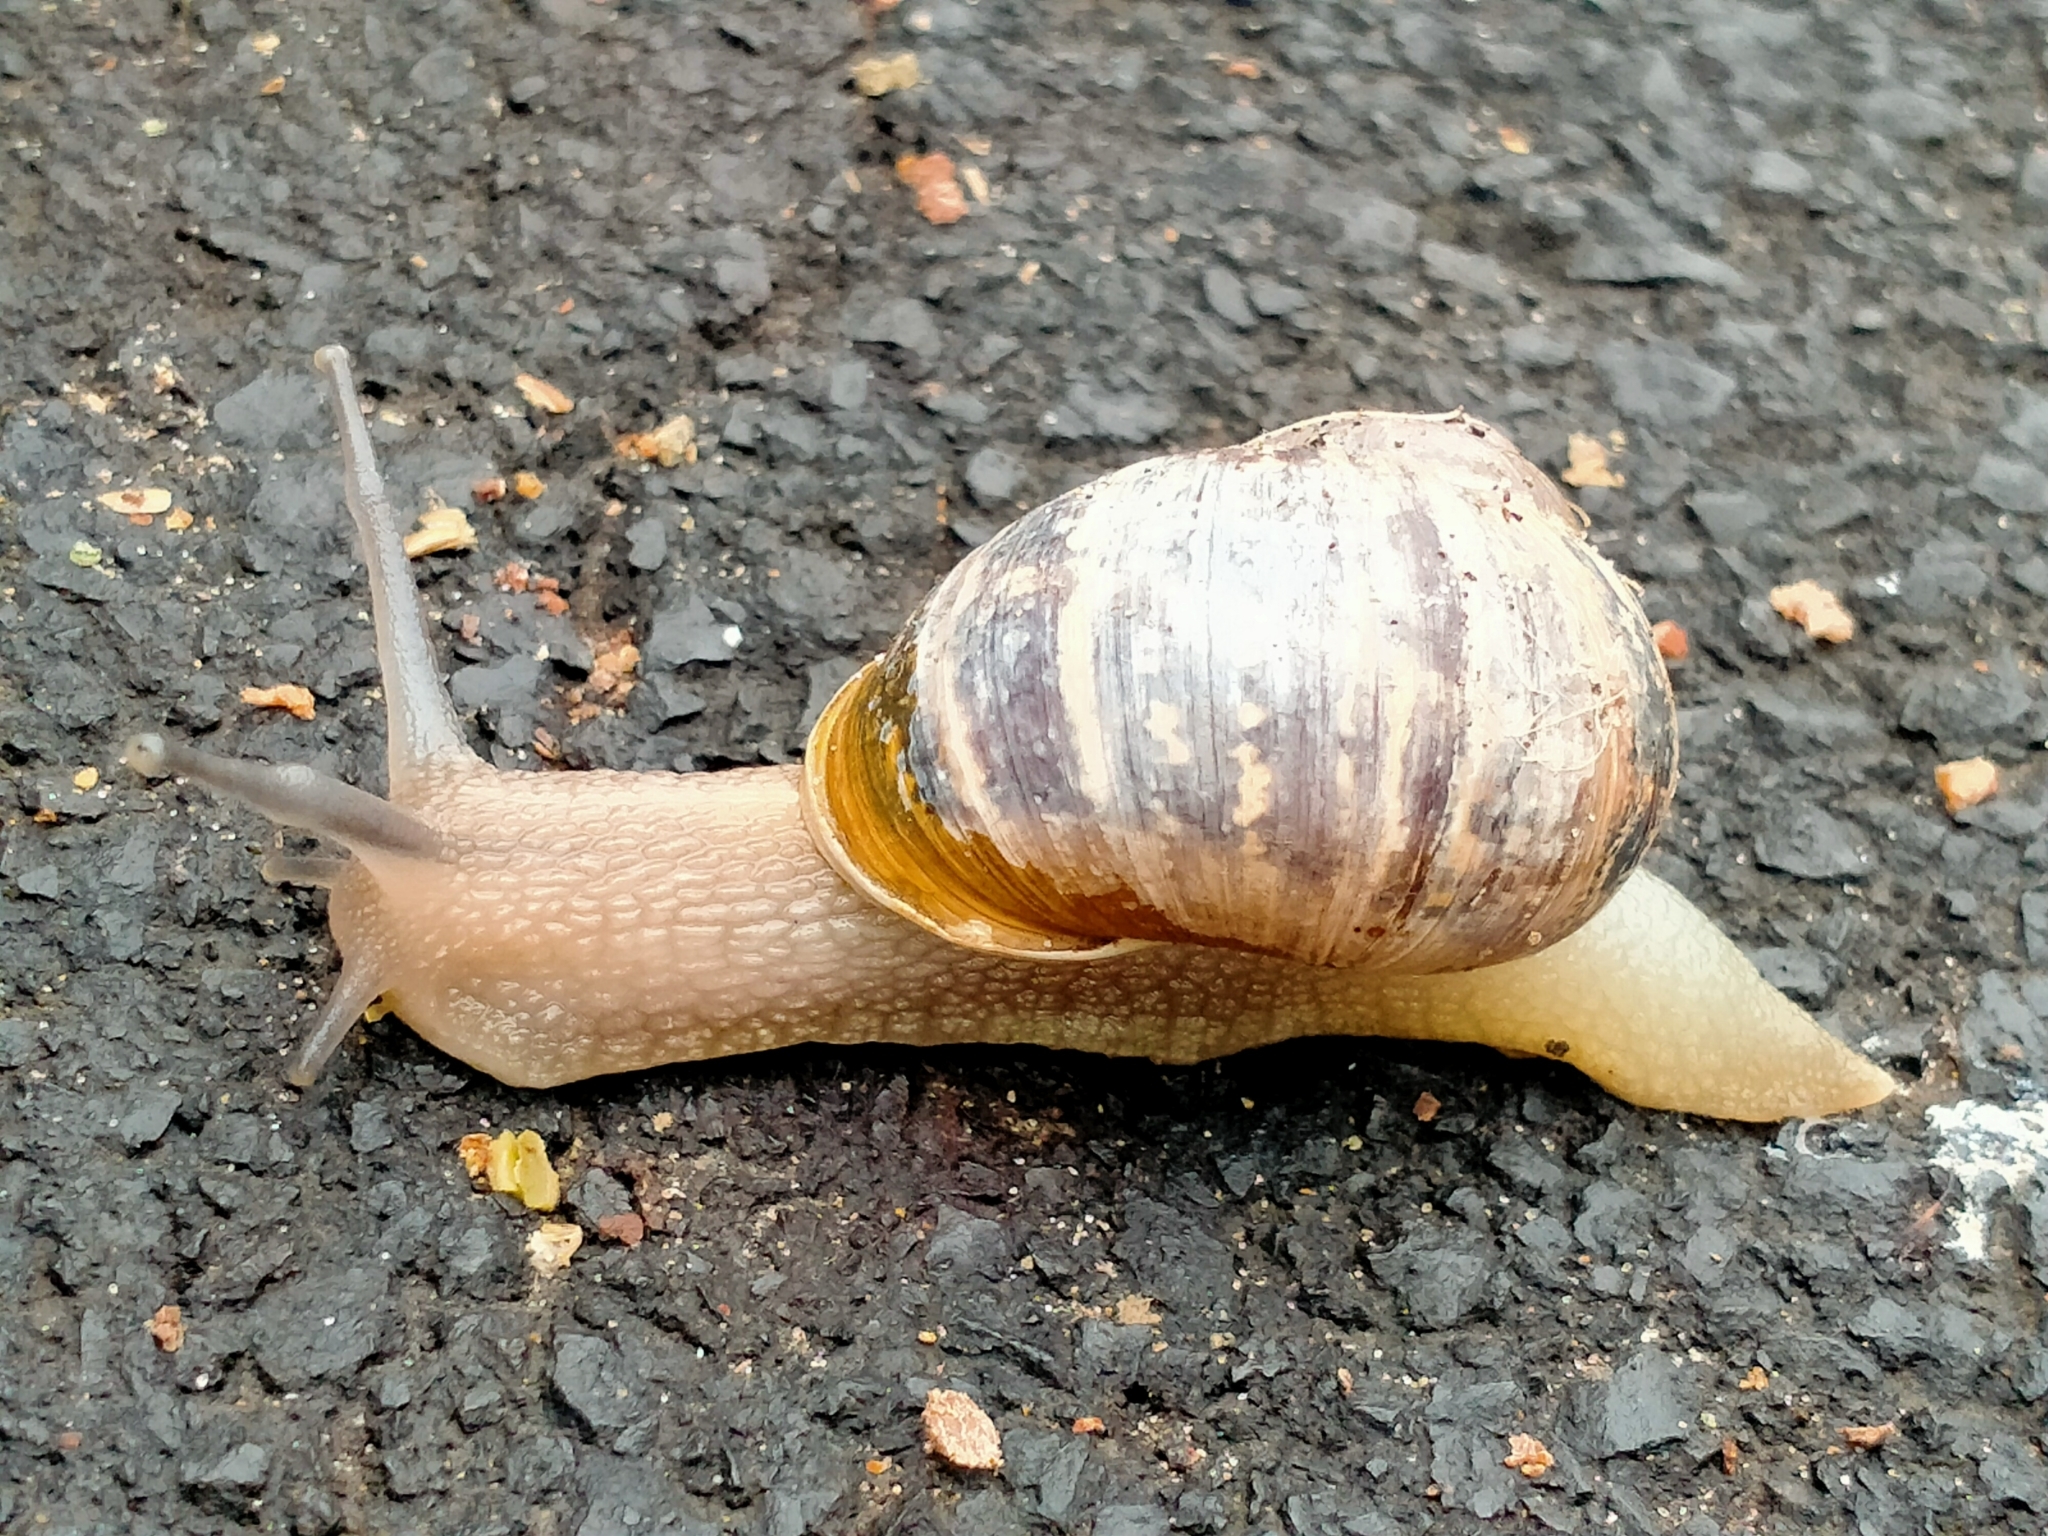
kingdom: Animalia
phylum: Mollusca
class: Gastropoda
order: Stylommatophora
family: Helicidae
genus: Cornu
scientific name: Cornu aspersum
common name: Brown garden snail
